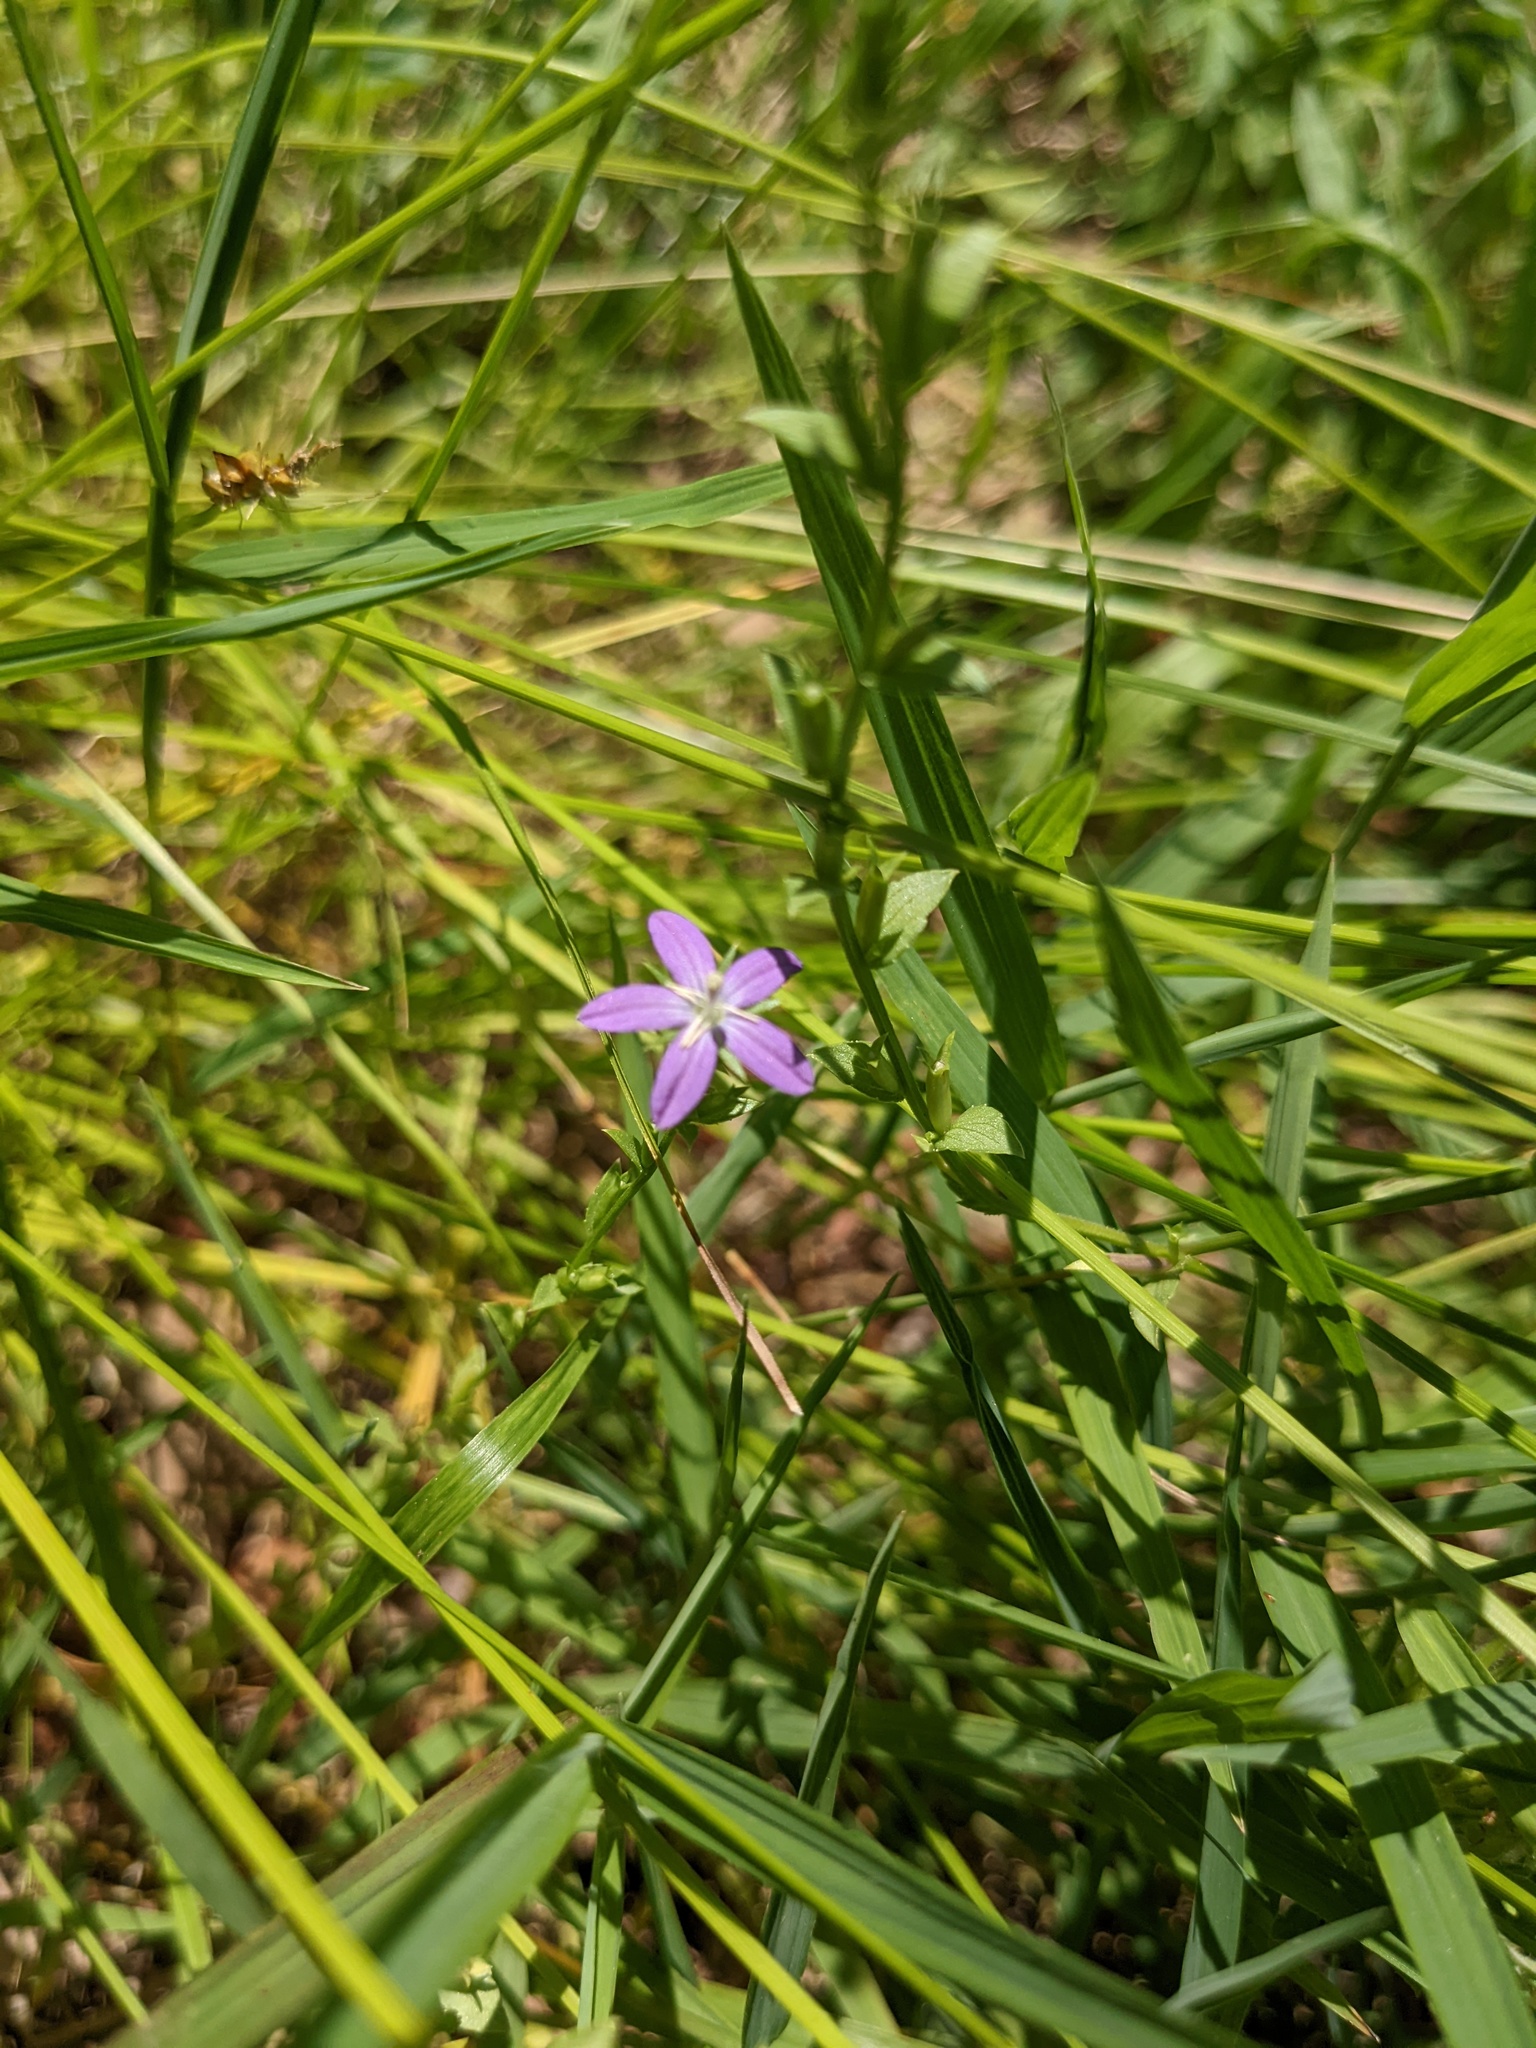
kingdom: Plantae
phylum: Tracheophyta
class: Magnoliopsida
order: Asterales
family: Campanulaceae
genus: Triodanis
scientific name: Triodanis biflora
